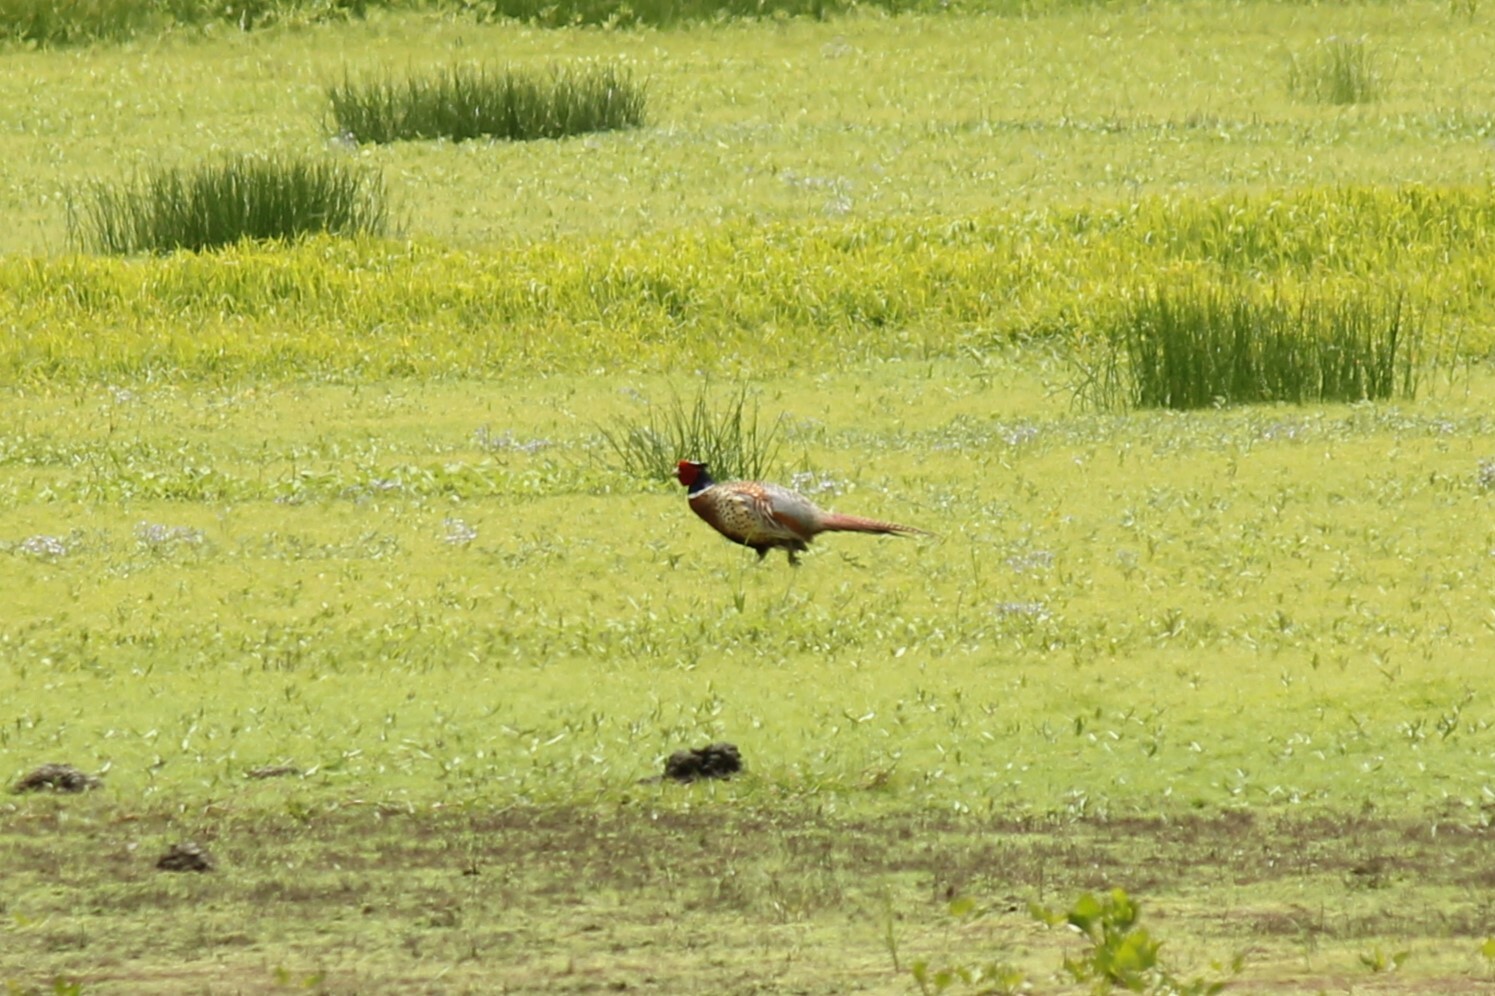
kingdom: Animalia
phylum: Chordata
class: Aves
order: Galliformes
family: Phasianidae
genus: Phasianus
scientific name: Phasianus colchicus
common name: Common pheasant
